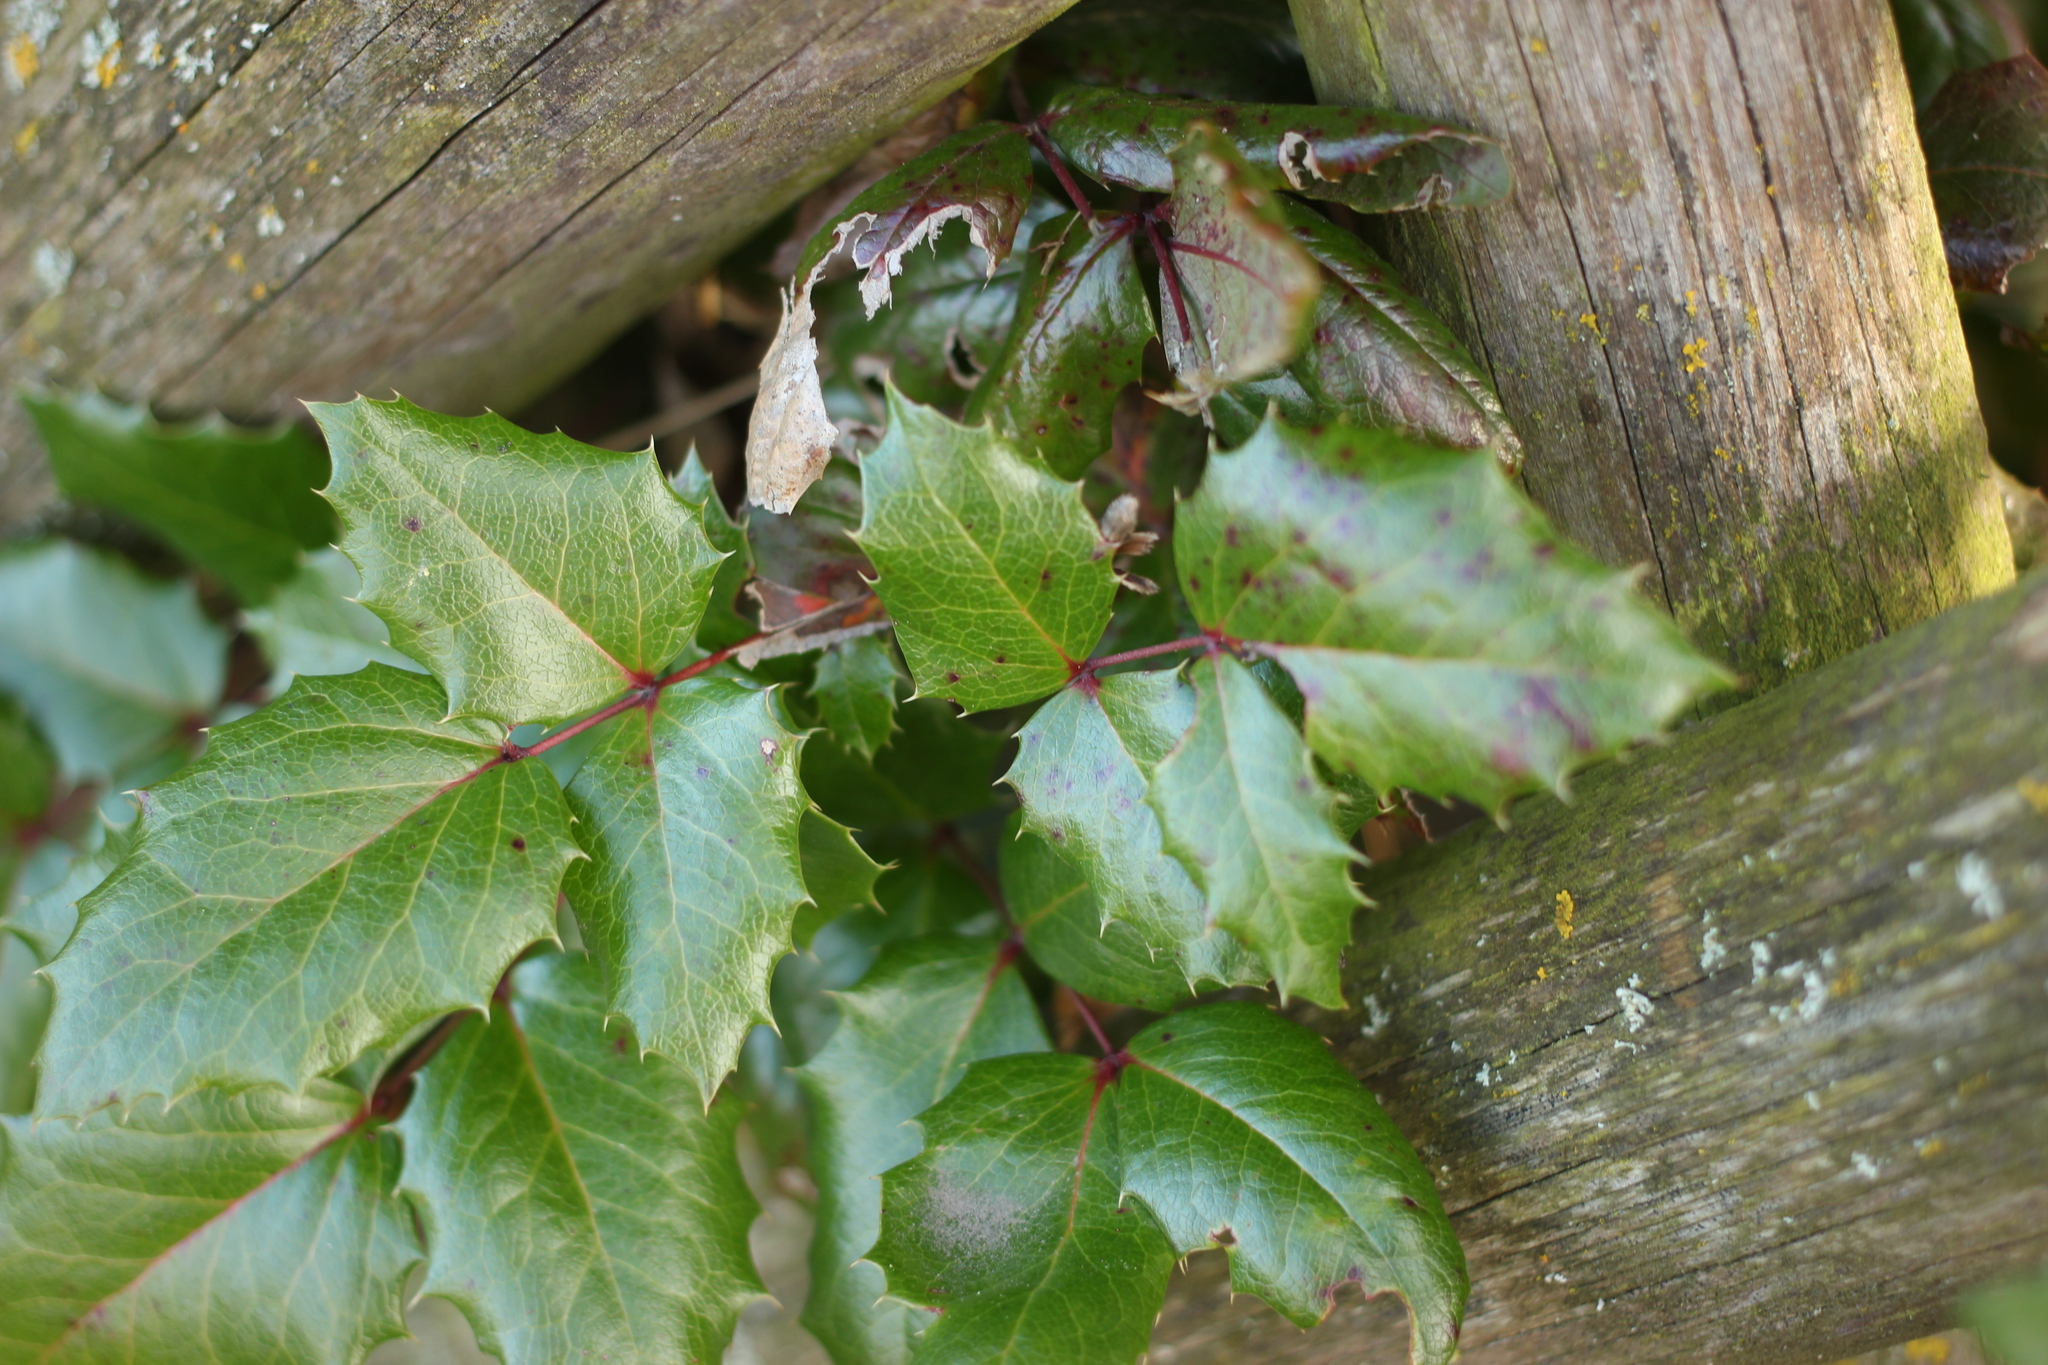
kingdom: Plantae
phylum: Tracheophyta
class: Magnoliopsida
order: Ranunculales
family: Berberidaceae
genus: Mahonia
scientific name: Mahonia aquifolium
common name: Oregon-grape
